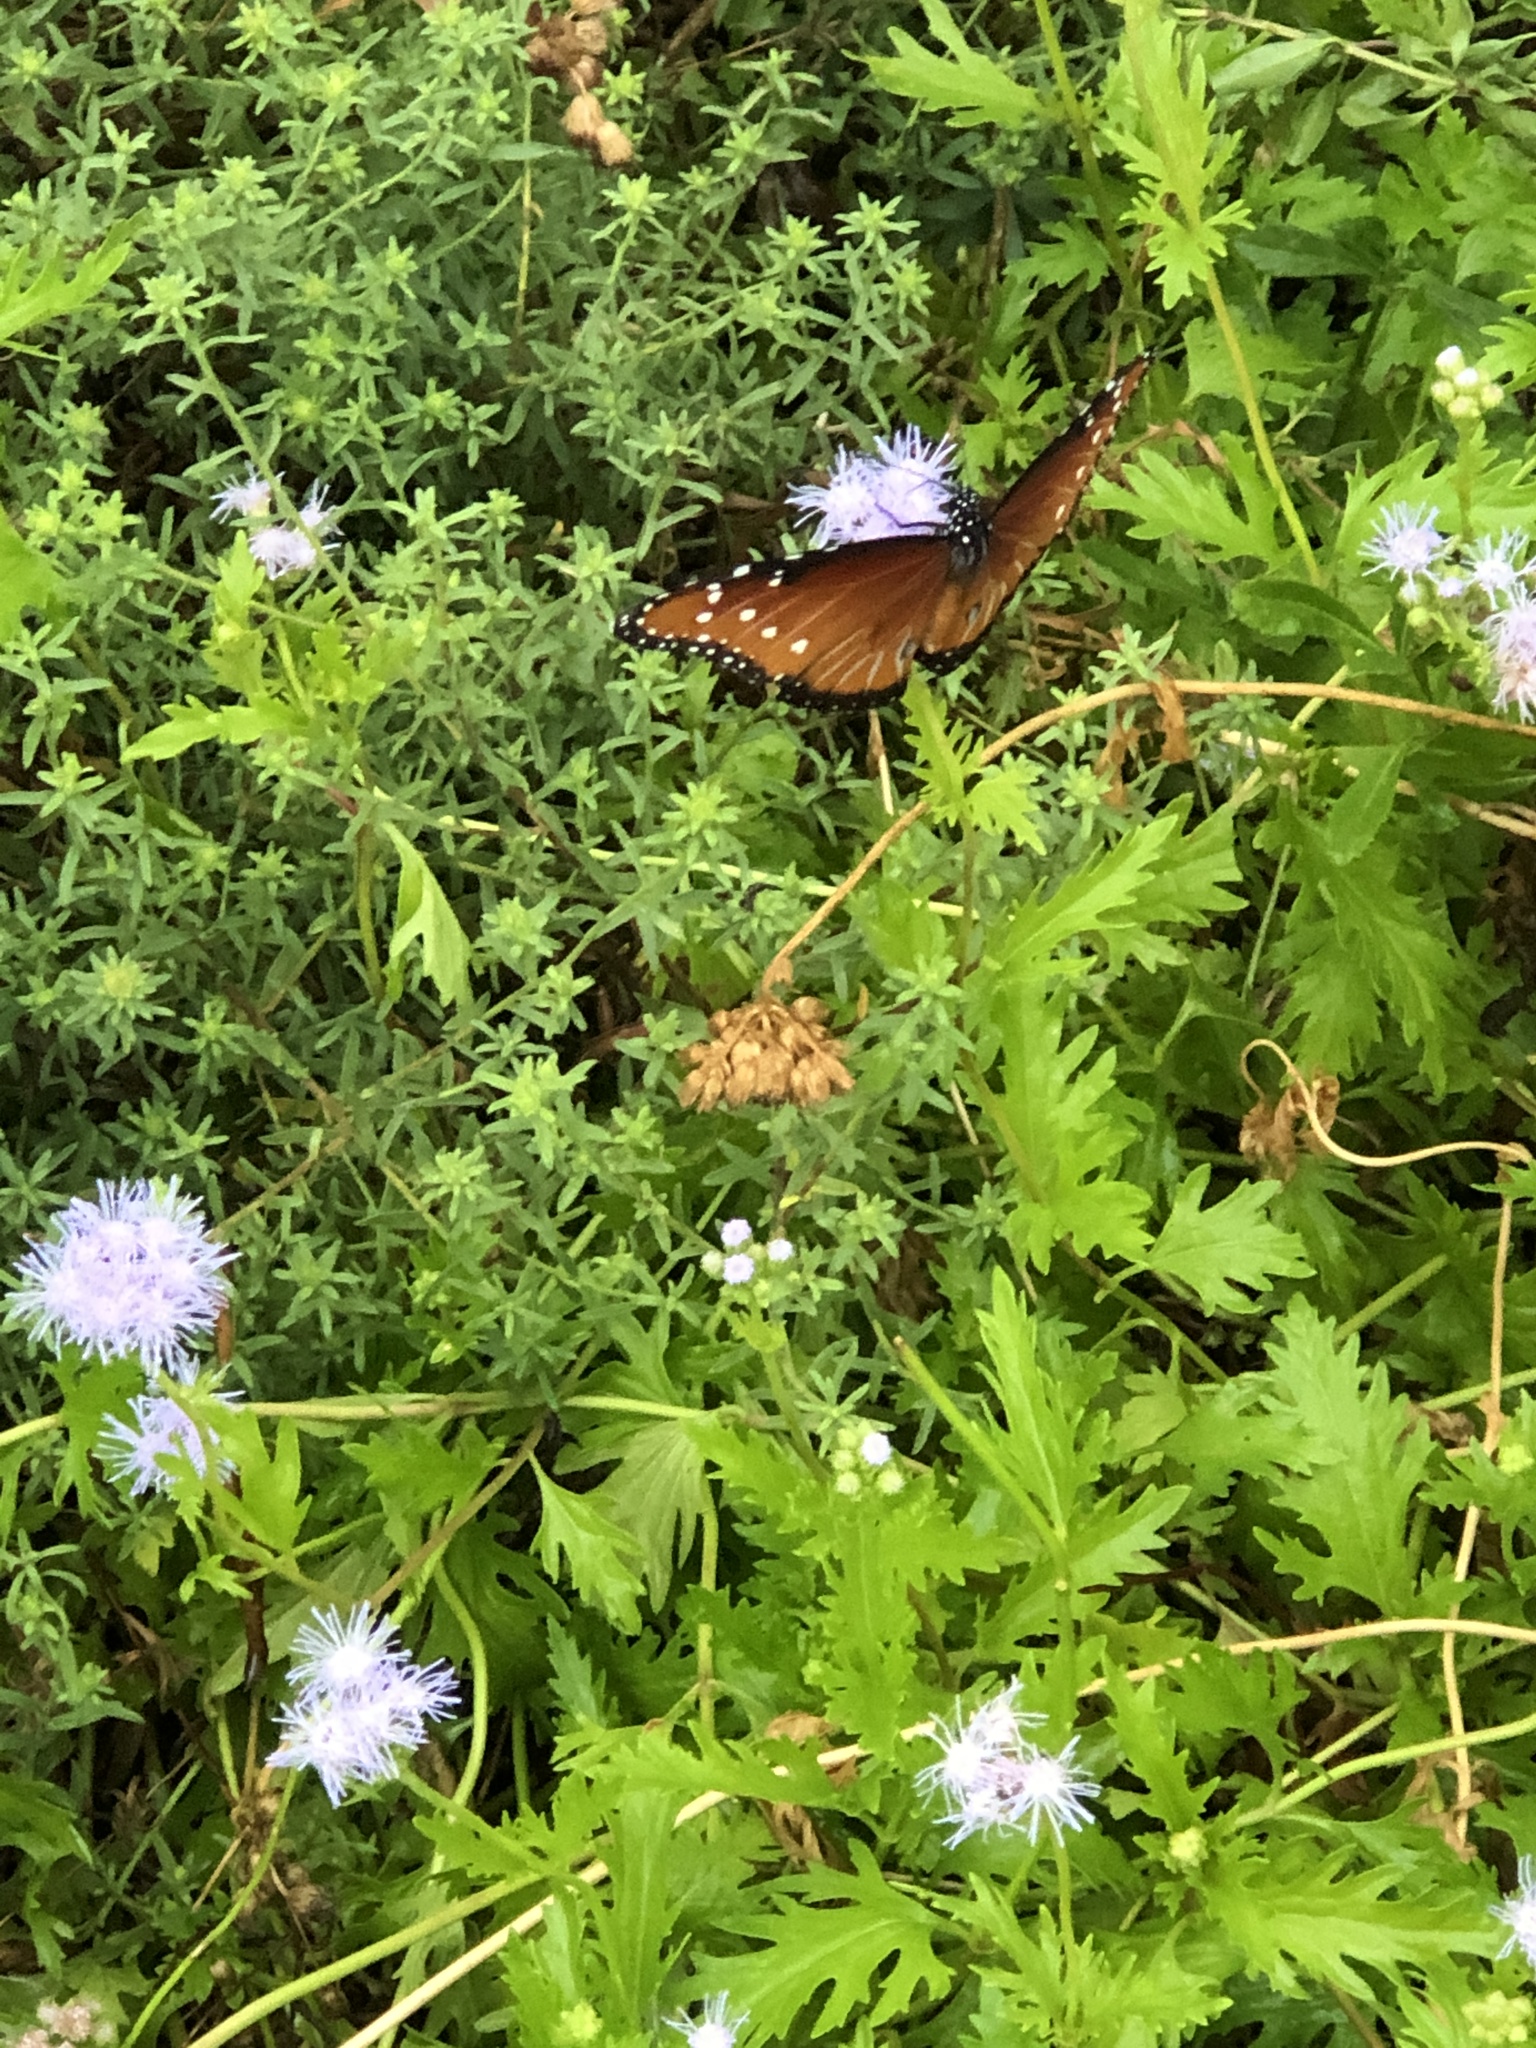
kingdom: Animalia
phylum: Arthropoda
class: Insecta
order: Lepidoptera
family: Nymphalidae
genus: Danaus
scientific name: Danaus gilippus
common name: Queen
